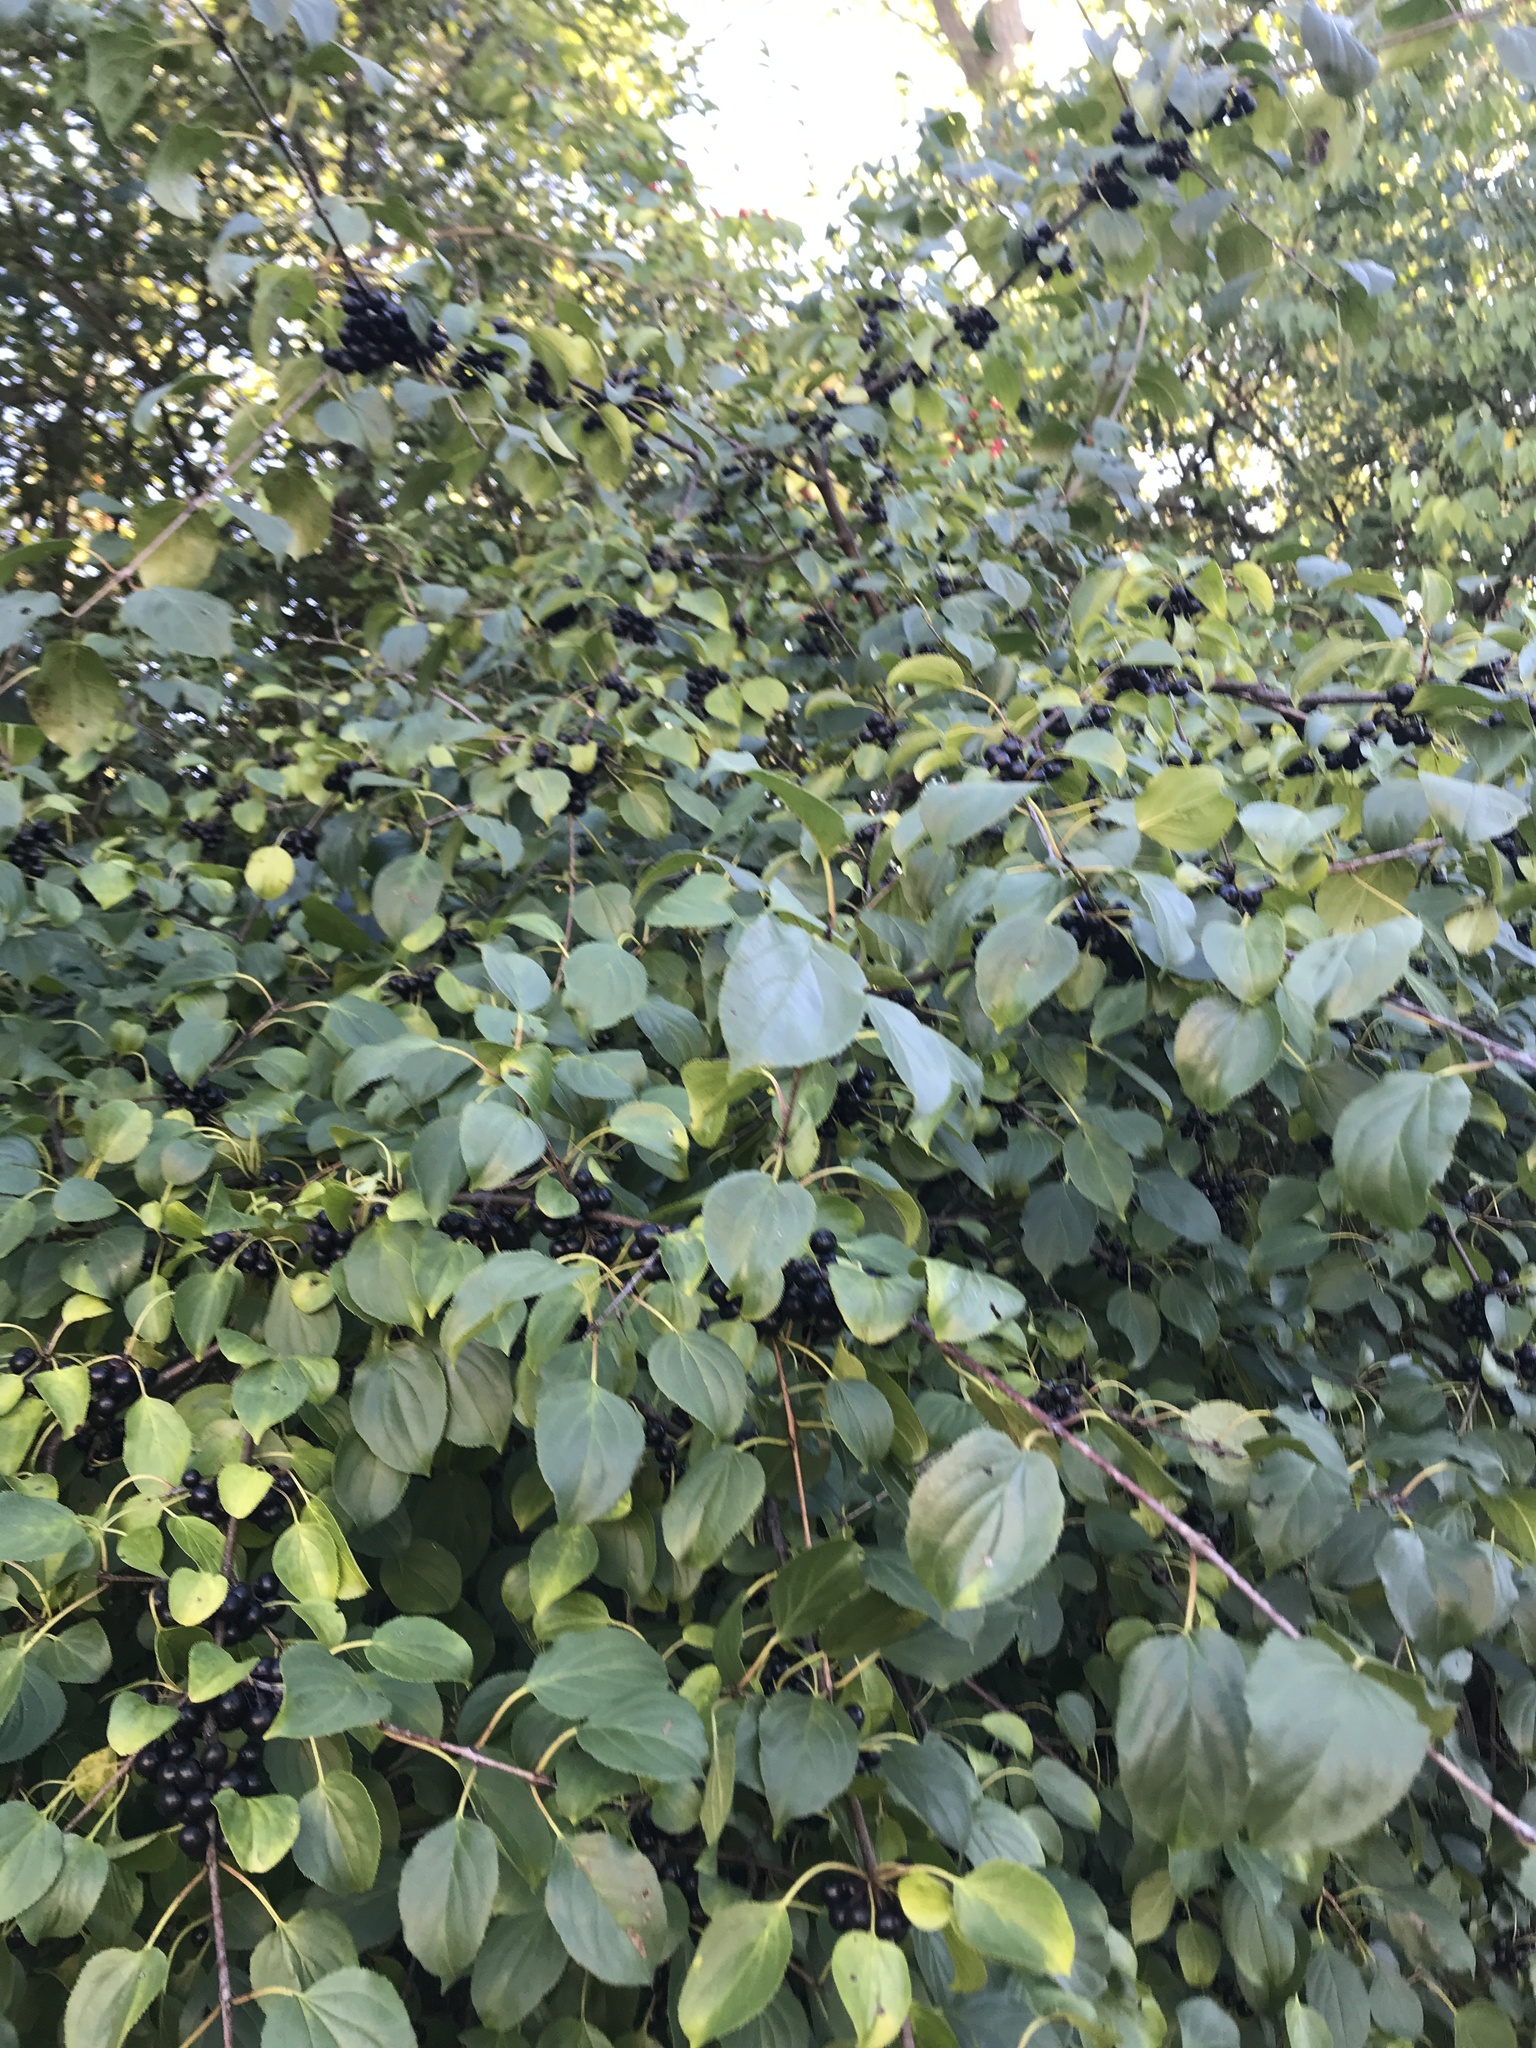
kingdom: Plantae
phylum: Tracheophyta
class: Magnoliopsida
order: Rosales
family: Rhamnaceae
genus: Rhamnus
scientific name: Rhamnus cathartica
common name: Common buckthorn
